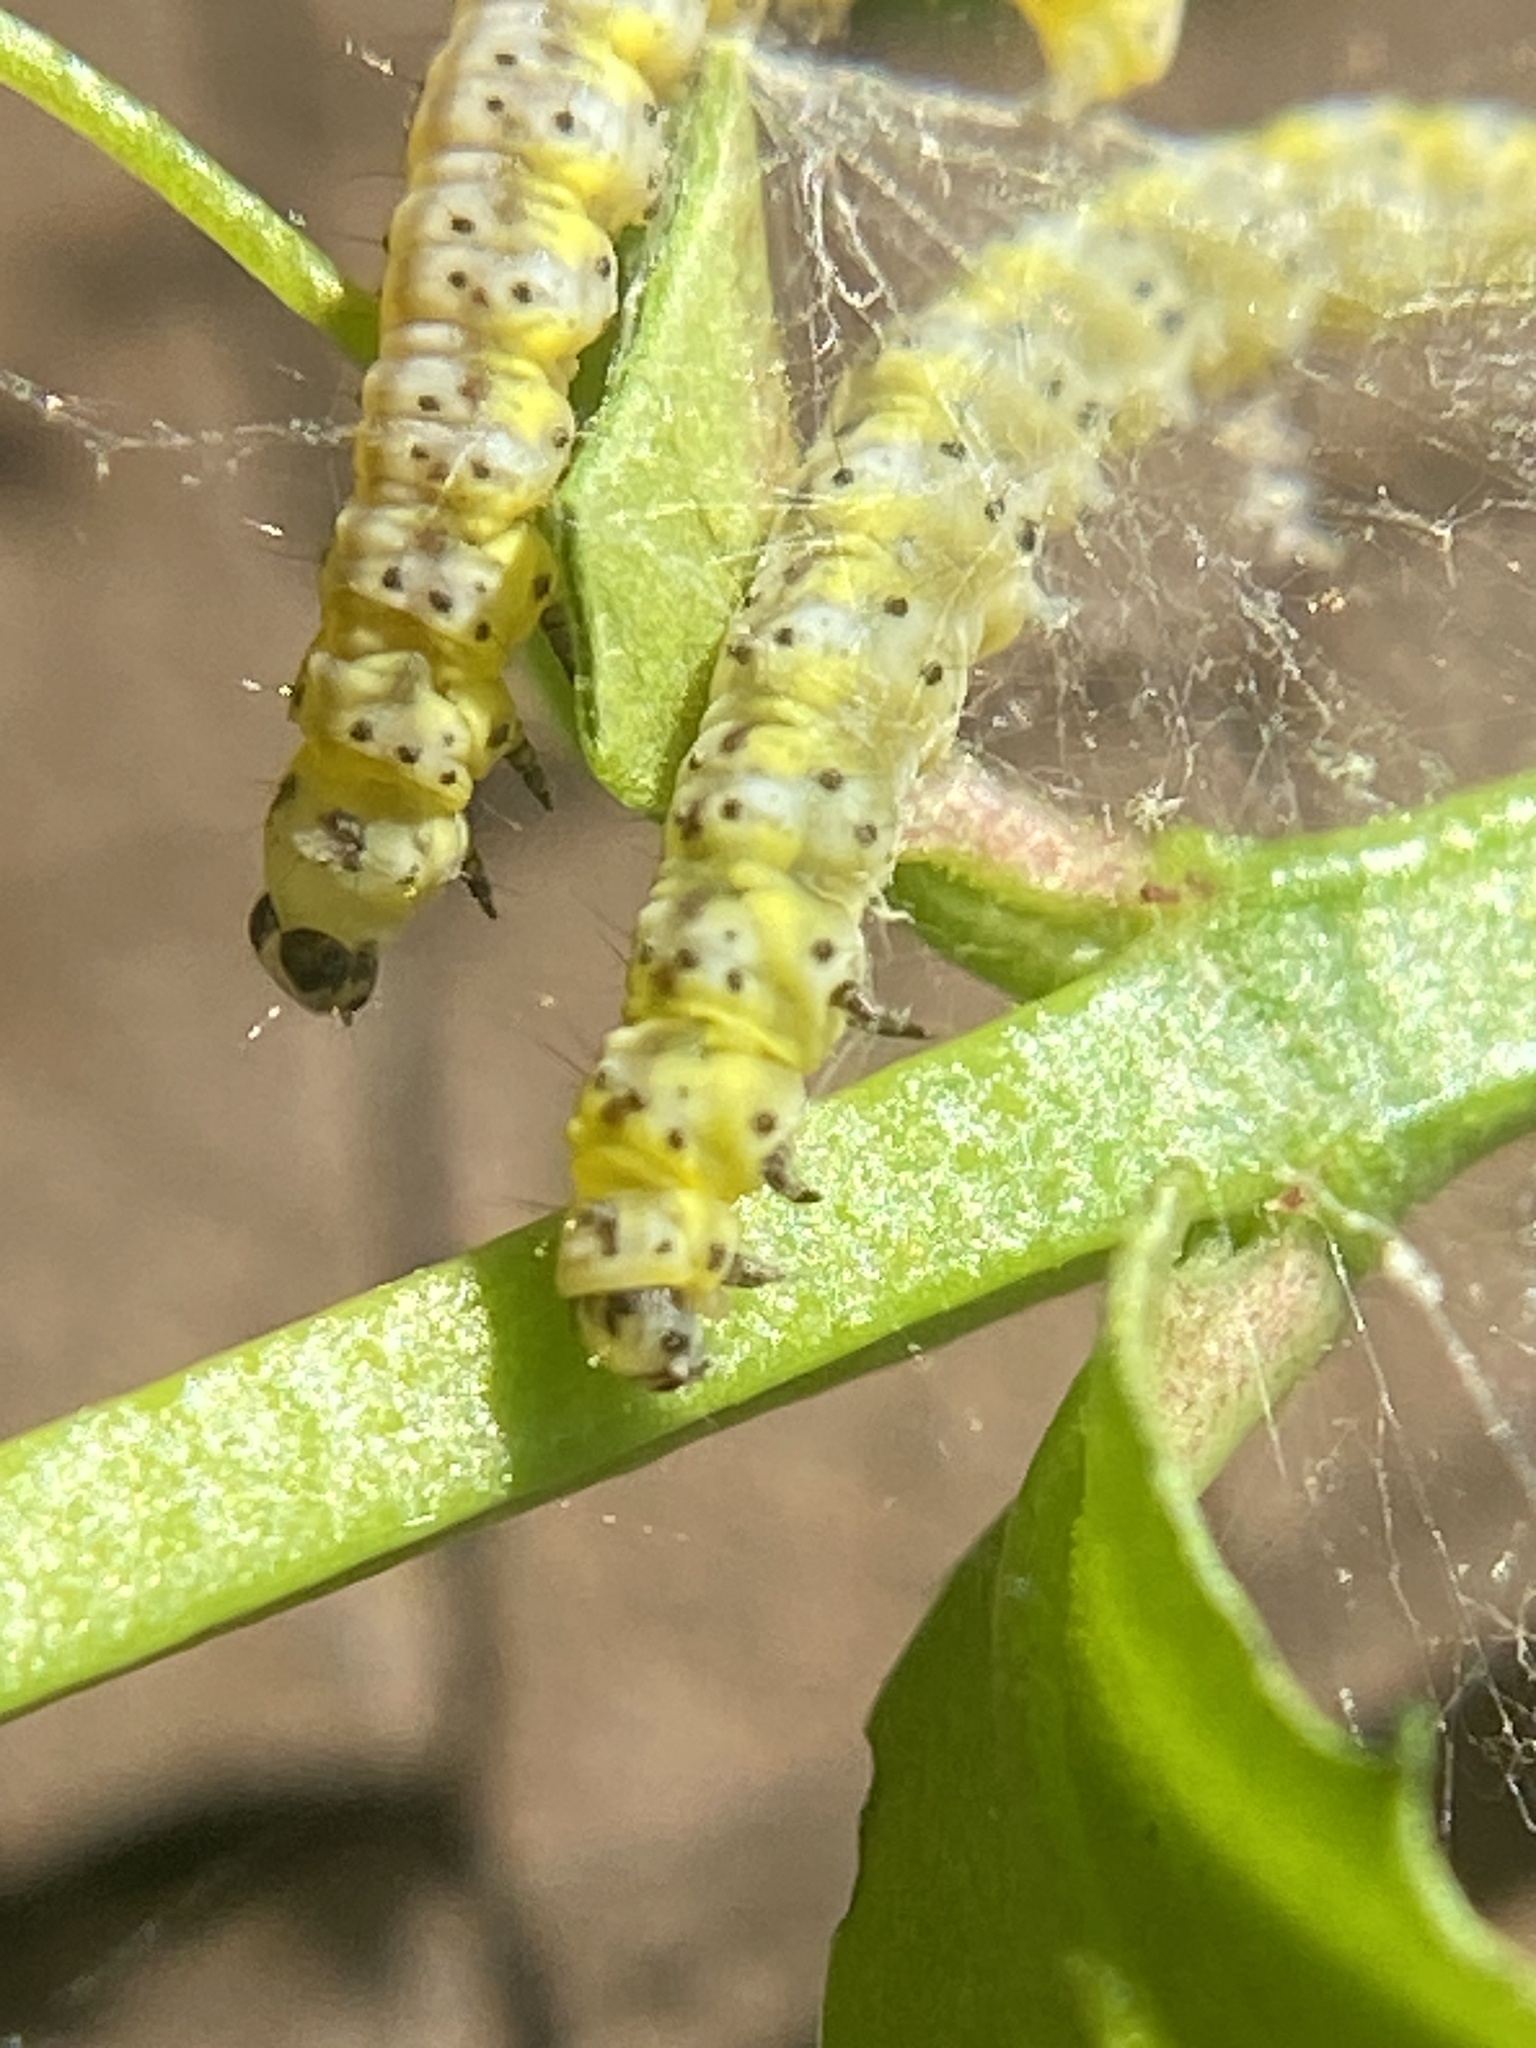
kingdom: Animalia
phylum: Arthropoda
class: Insecta
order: Lepidoptera
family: Yponomeutidae
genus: Yponomeuta
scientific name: Yponomeuta multipunctella
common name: American ermine moth
